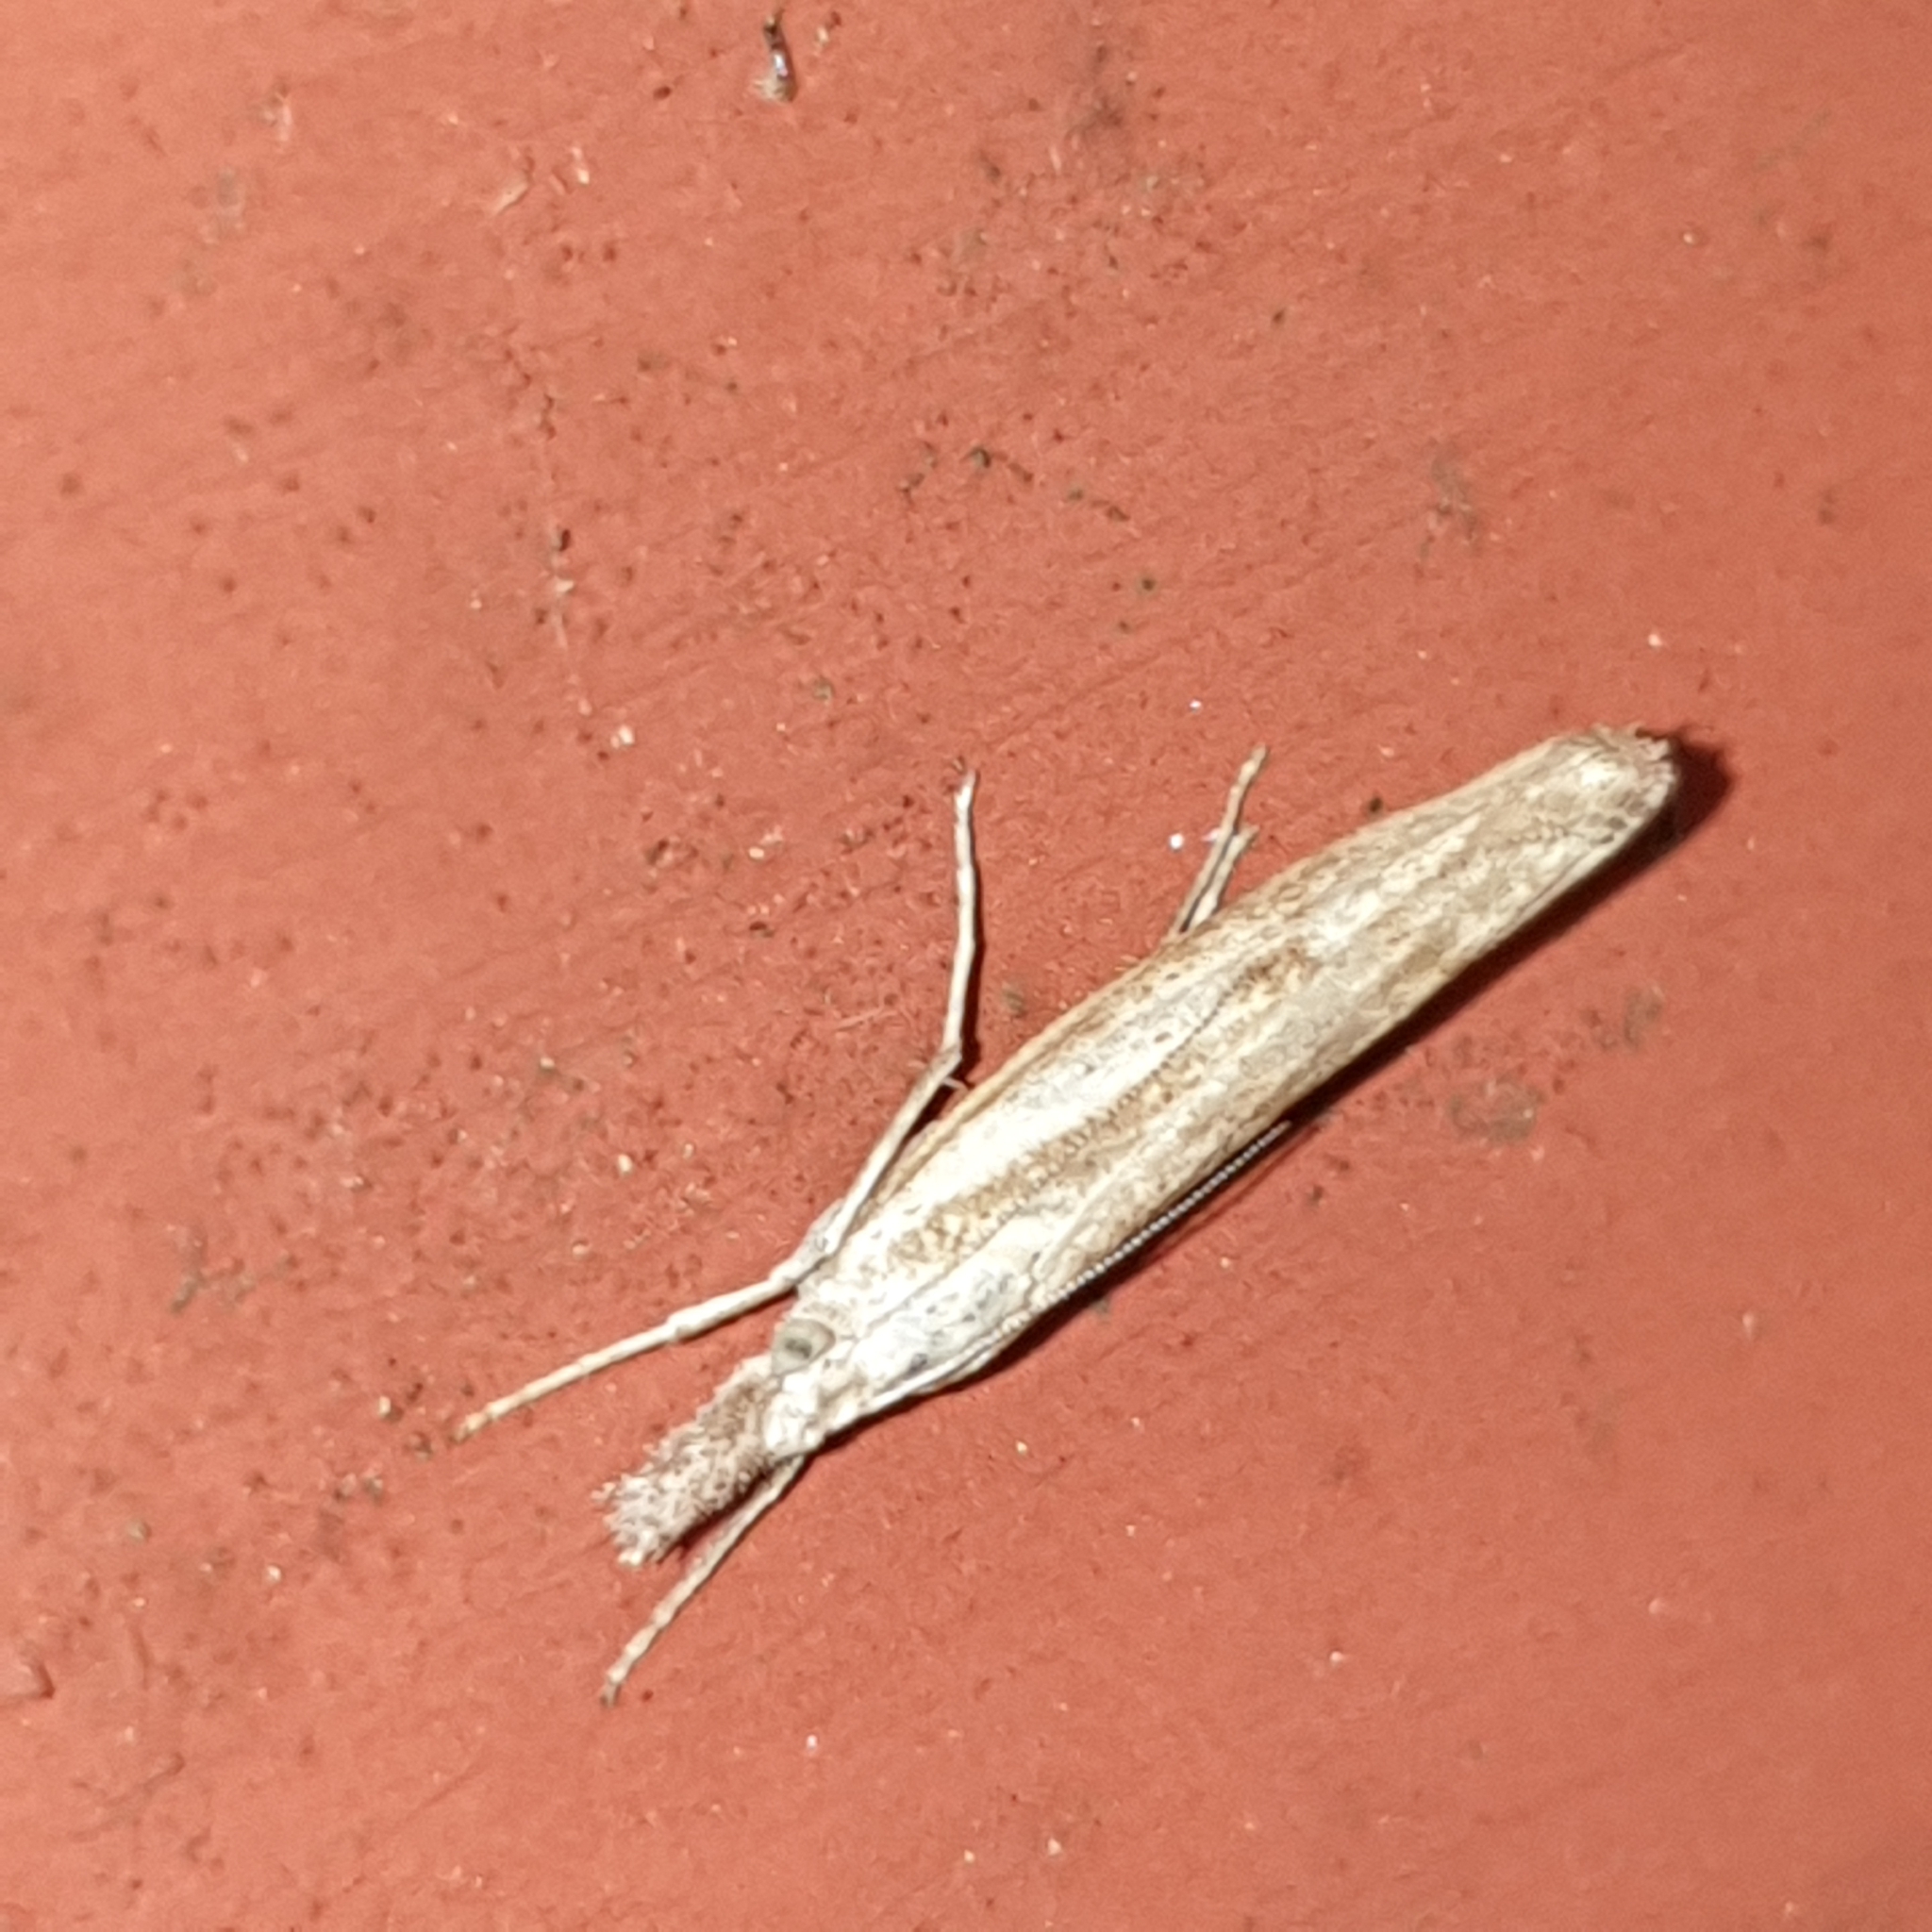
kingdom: Animalia
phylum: Arthropoda
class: Insecta
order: Lepidoptera
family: Crambidae
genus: Agriphila
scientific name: Agriphila inquinatella
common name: Barred grass-veneer
